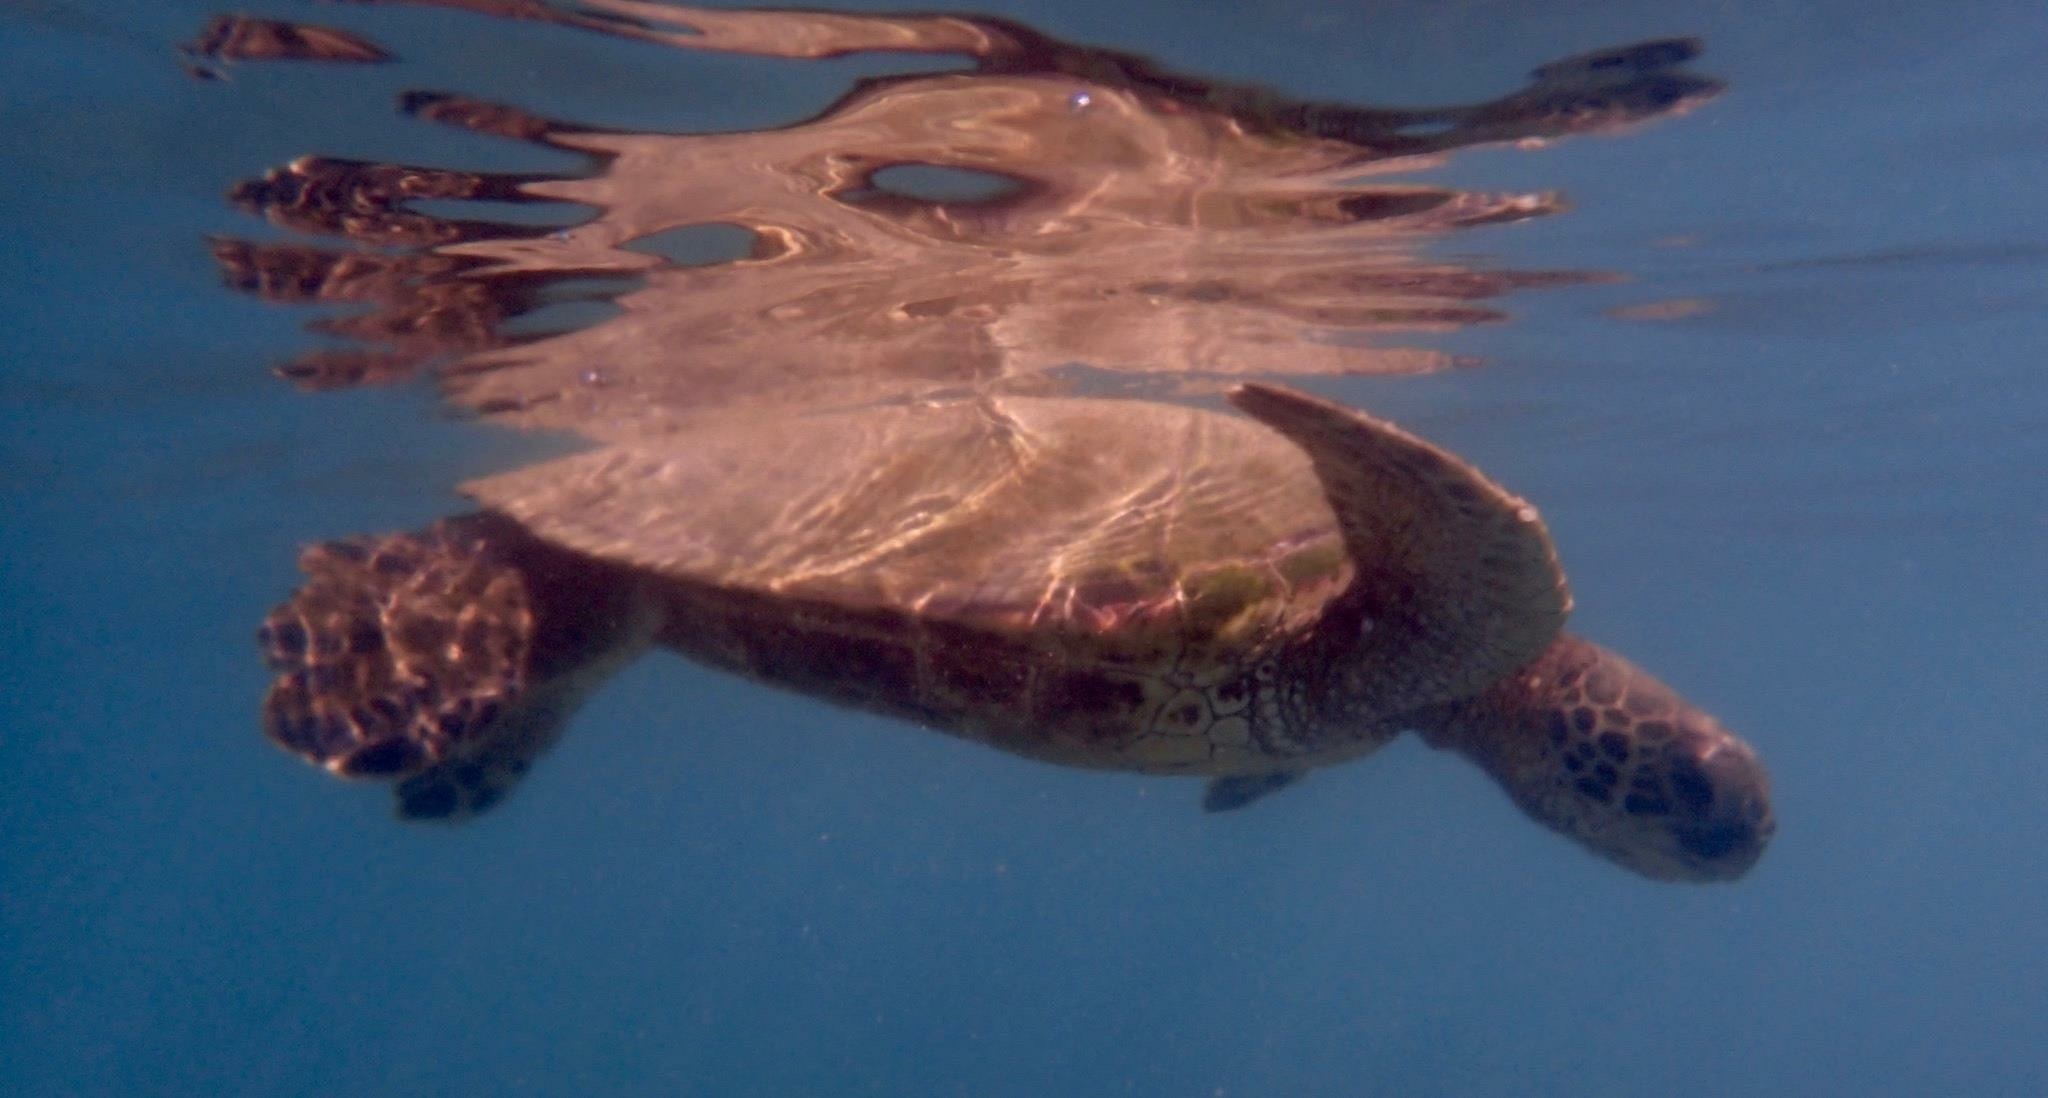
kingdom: Animalia
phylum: Chordata
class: Testudines
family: Cheloniidae
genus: Chelonia
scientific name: Chelonia mydas
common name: Green turtle
